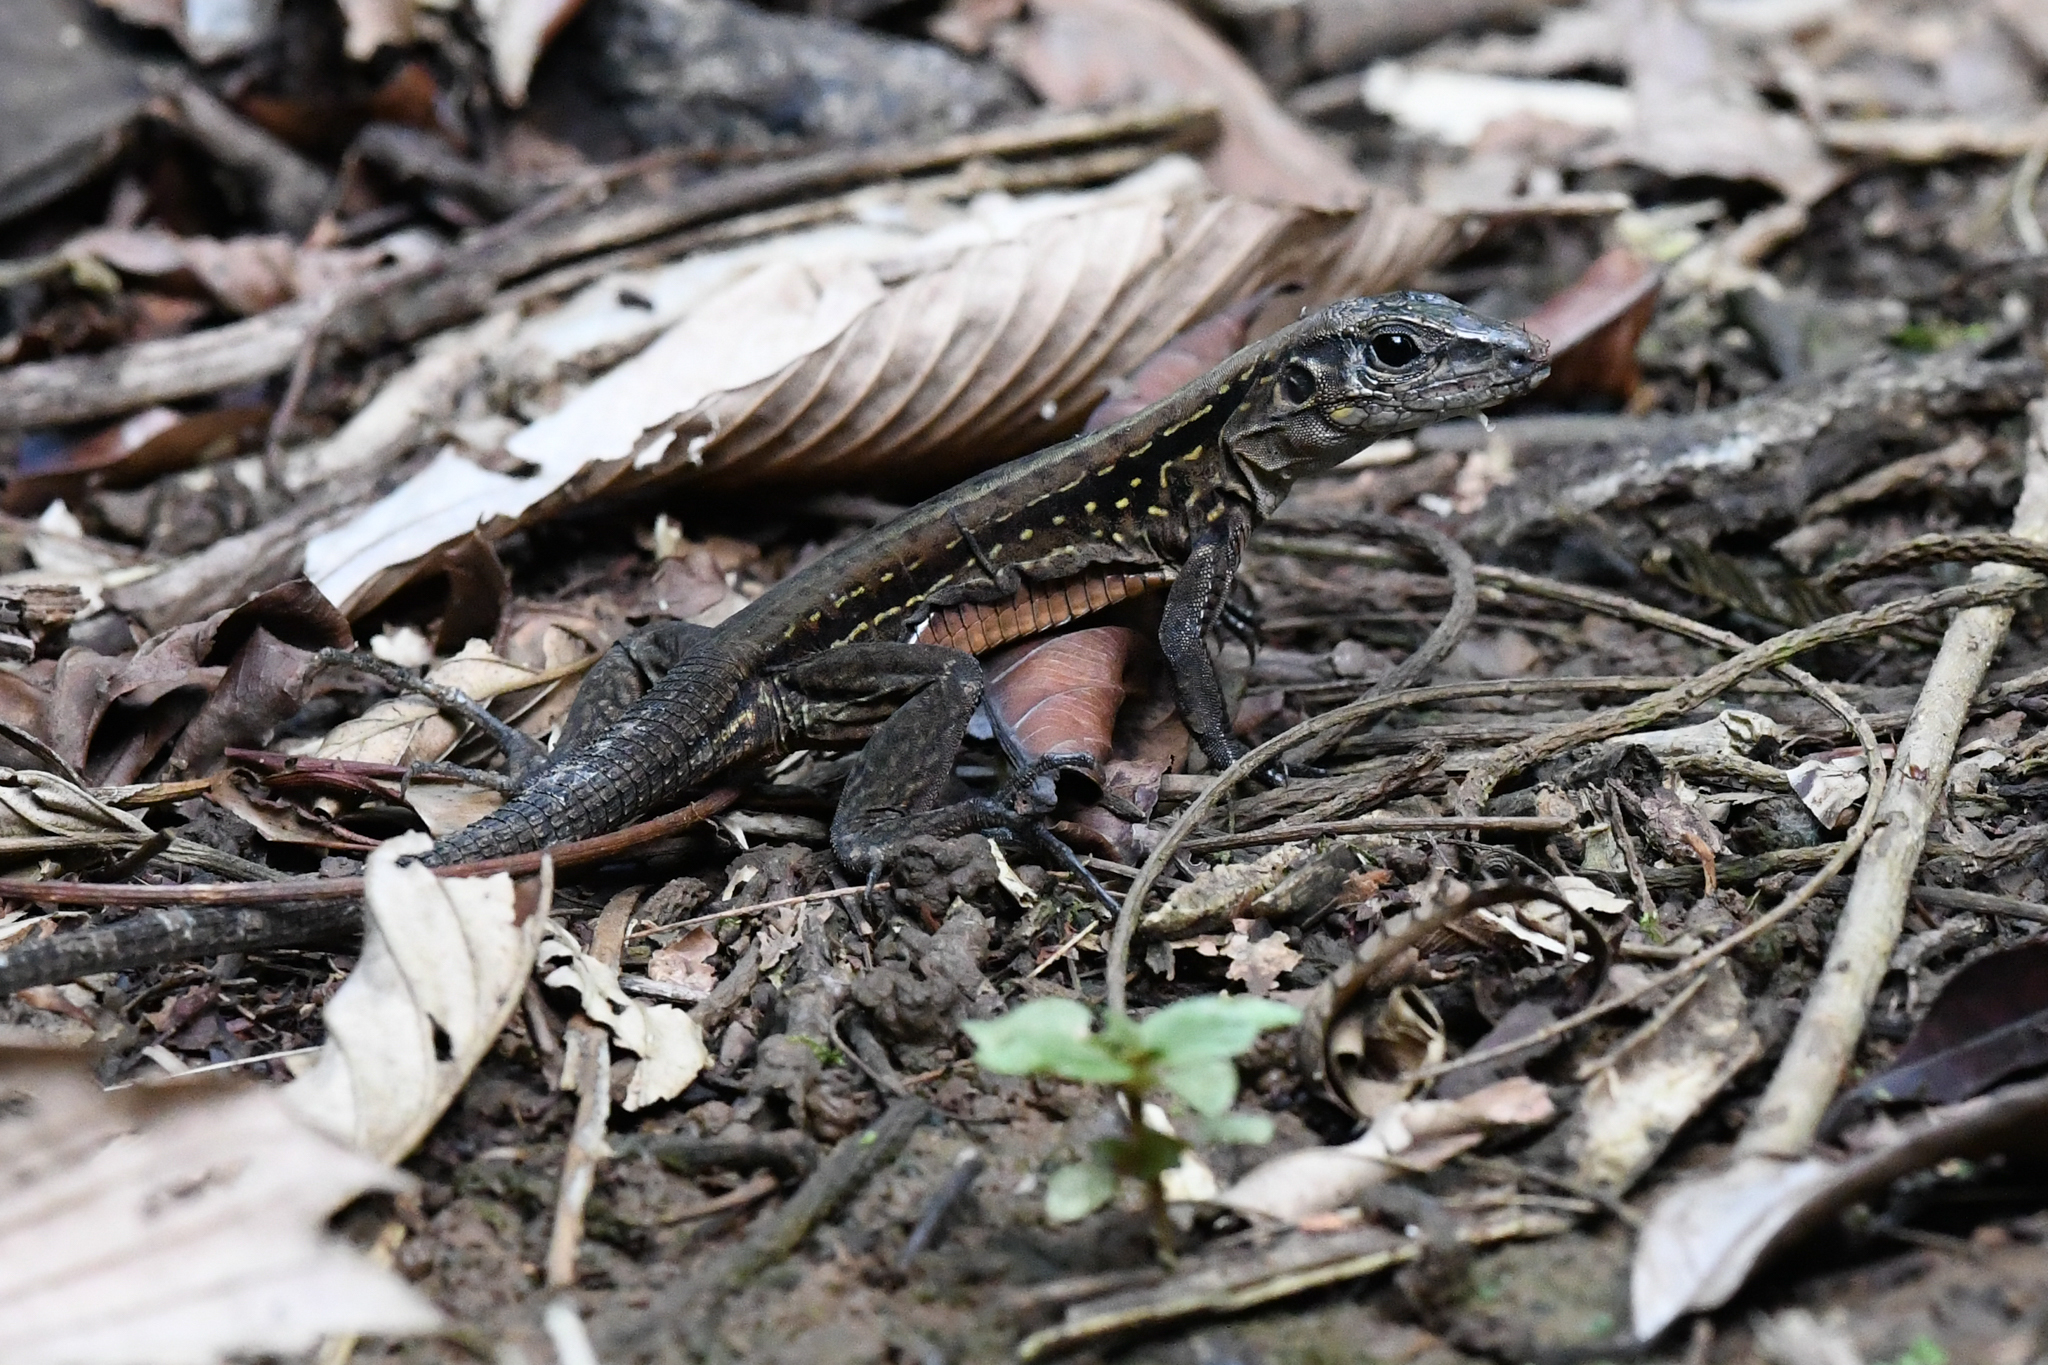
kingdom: Animalia
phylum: Chordata
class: Squamata
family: Teiidae
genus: Holcosus
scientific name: Holcosus festivus
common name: Middle american ameiva
